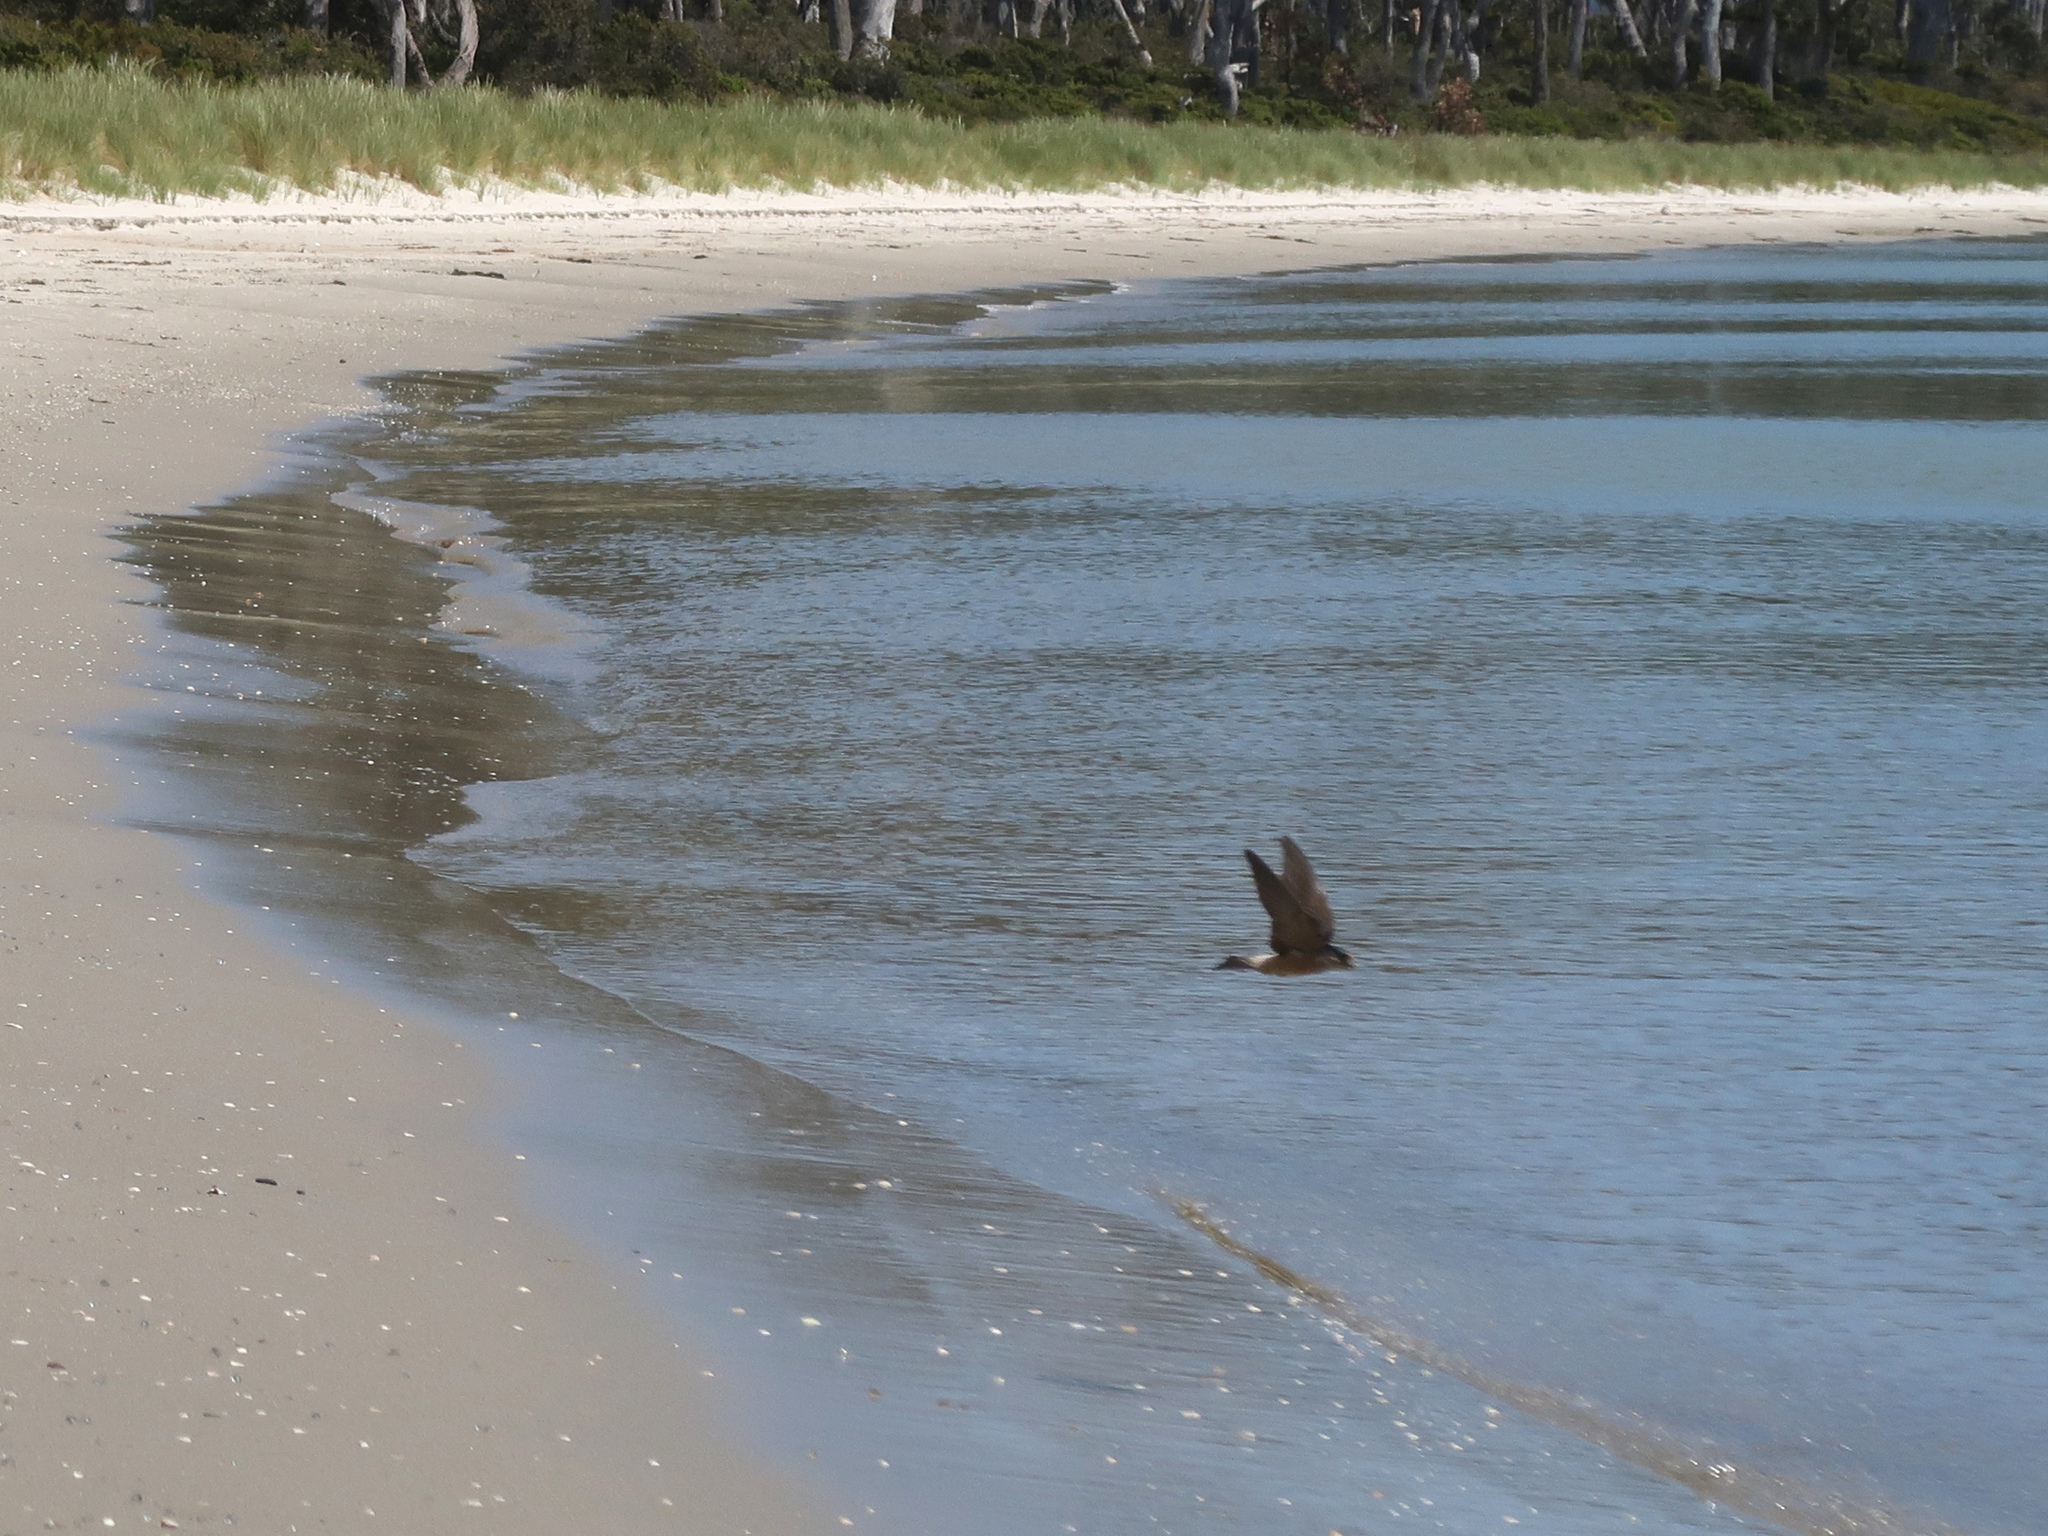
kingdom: Animalia
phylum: Chordata
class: Aves
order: Passeriformes
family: Hirundinidae
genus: Petrochelidon
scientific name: Petrochelidon nigricans
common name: Tree martin
